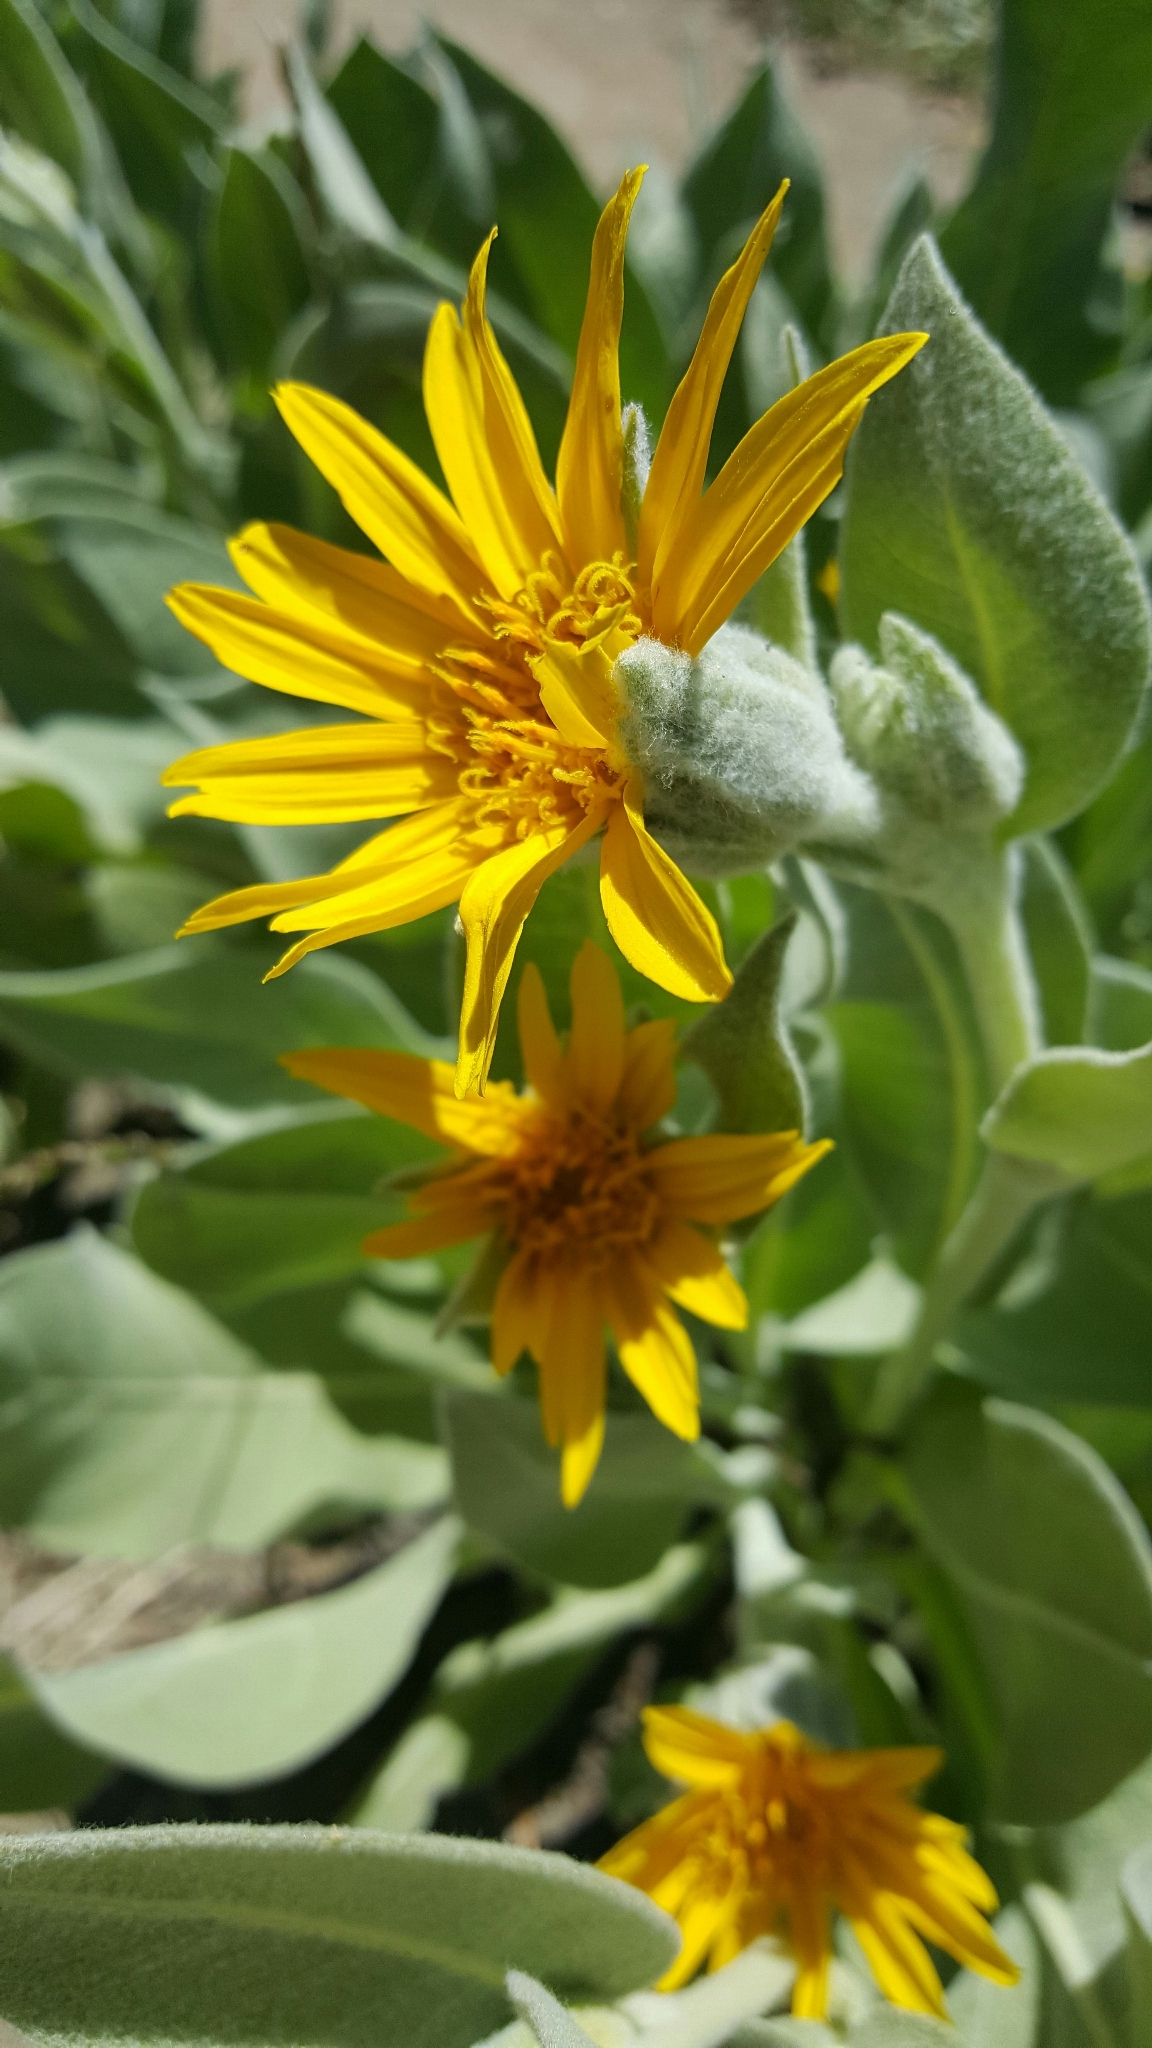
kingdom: Plantae
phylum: Tracheophyta
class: Magnoliopsida
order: Asterales
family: Asteraceae
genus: Wyethia
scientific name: Wyethia mollis
